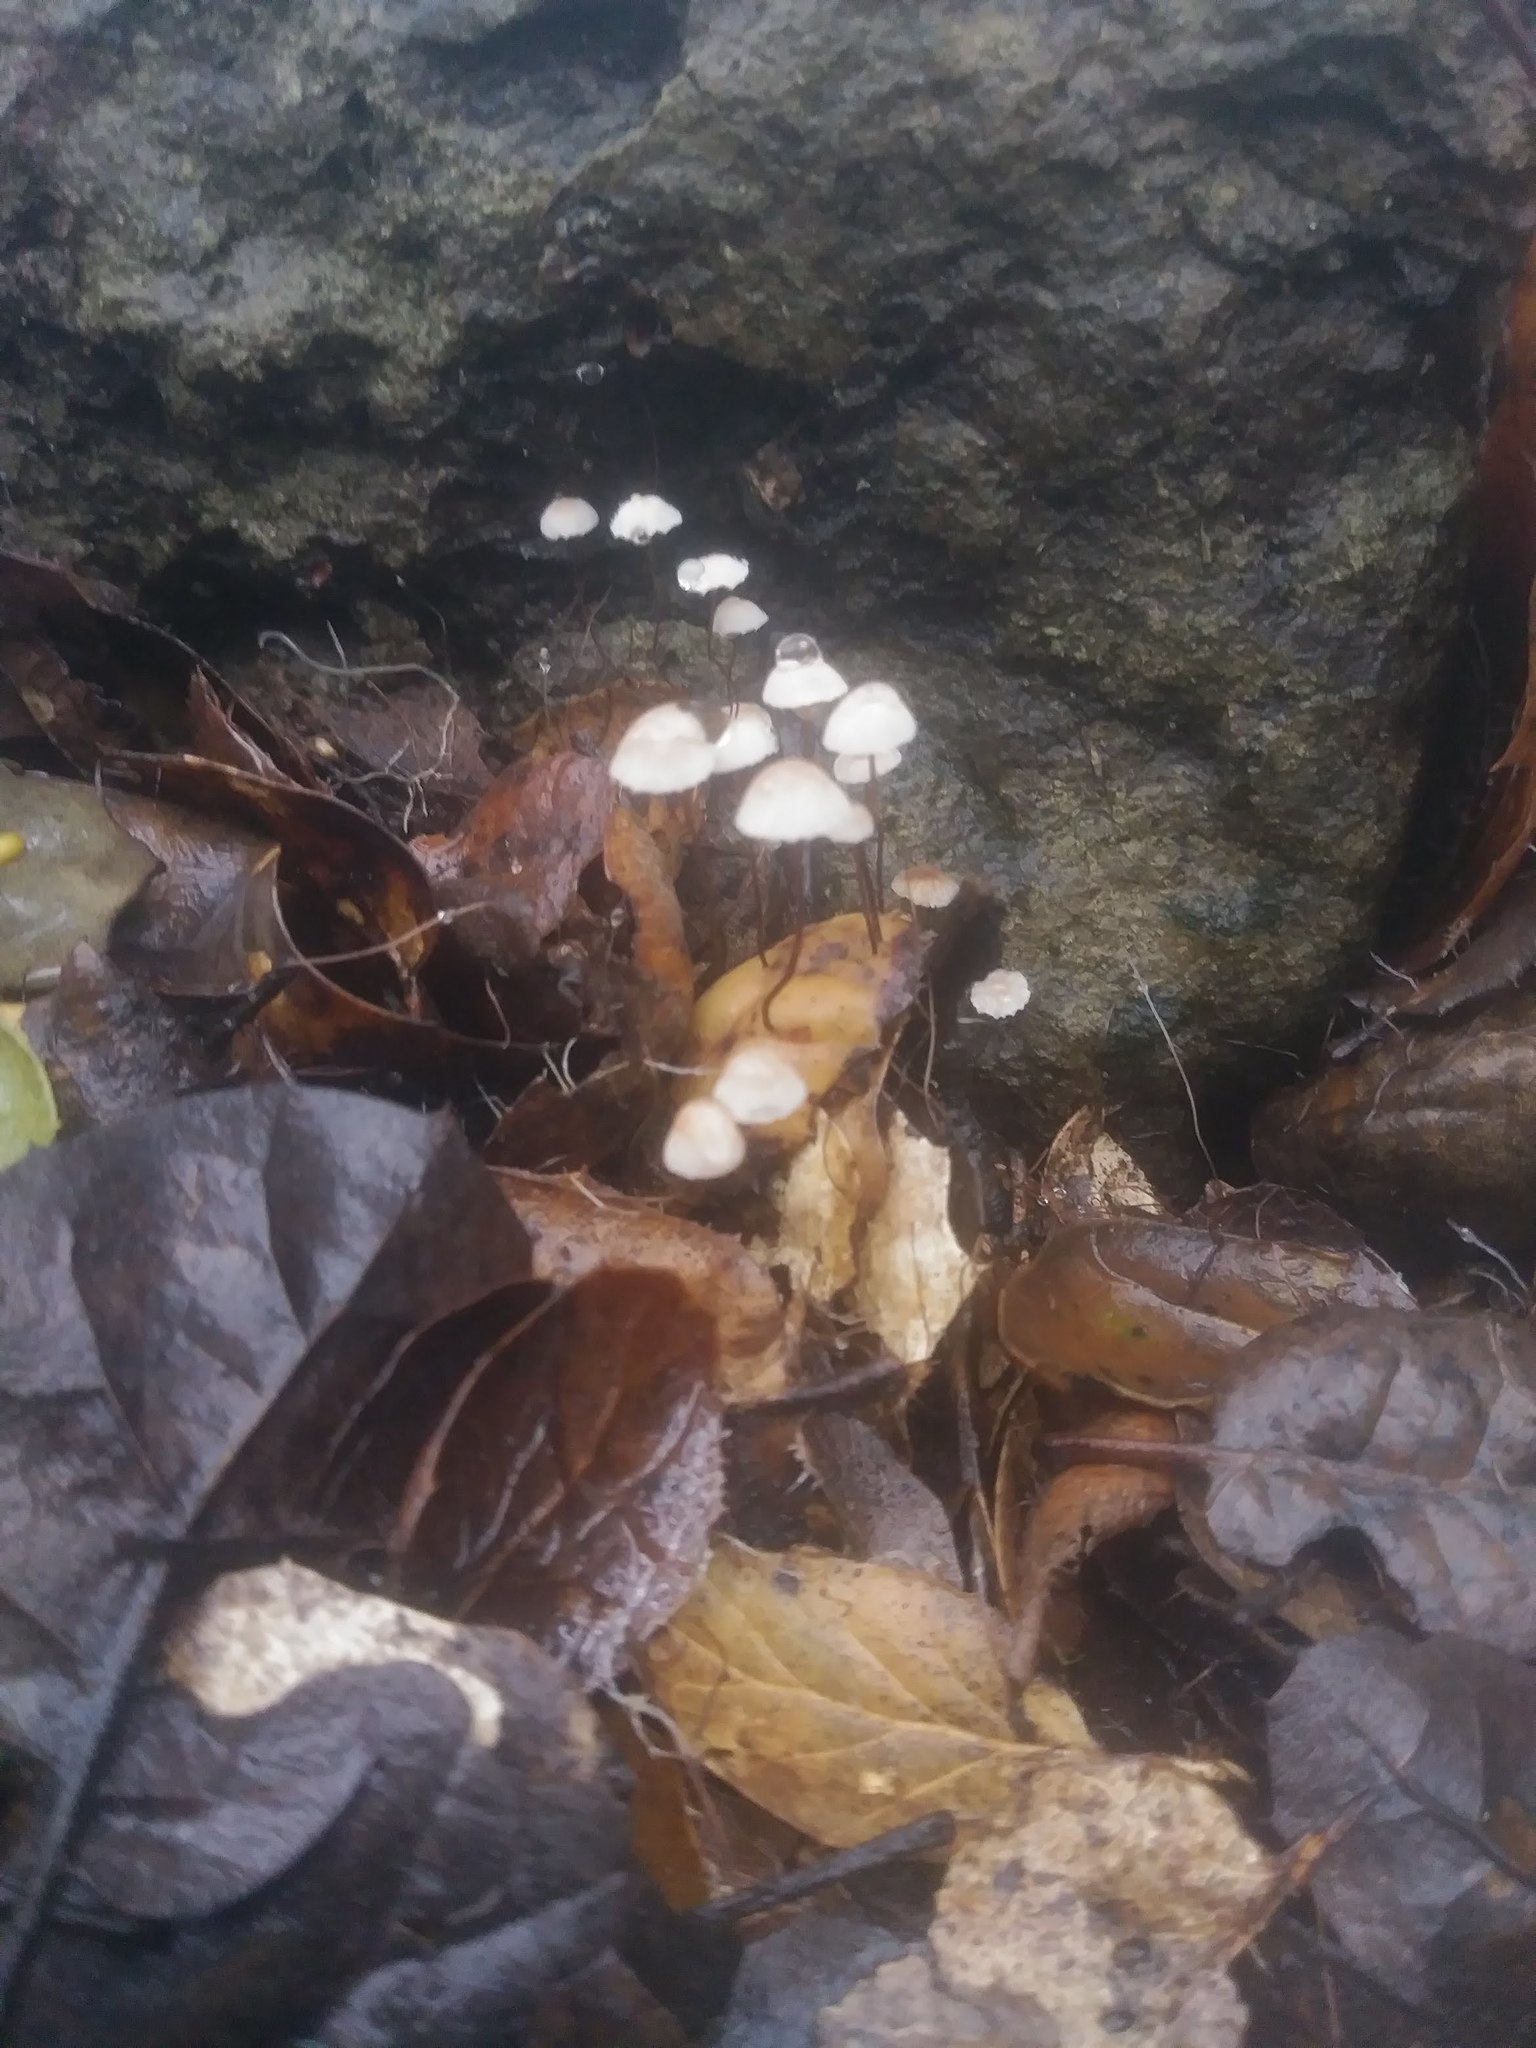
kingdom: Fungi
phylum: Basidiomycota
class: Agaricomycetes
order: Agaricales
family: Omphalotaceae
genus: Collybiopsis
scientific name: Collybiopsis quercophila
